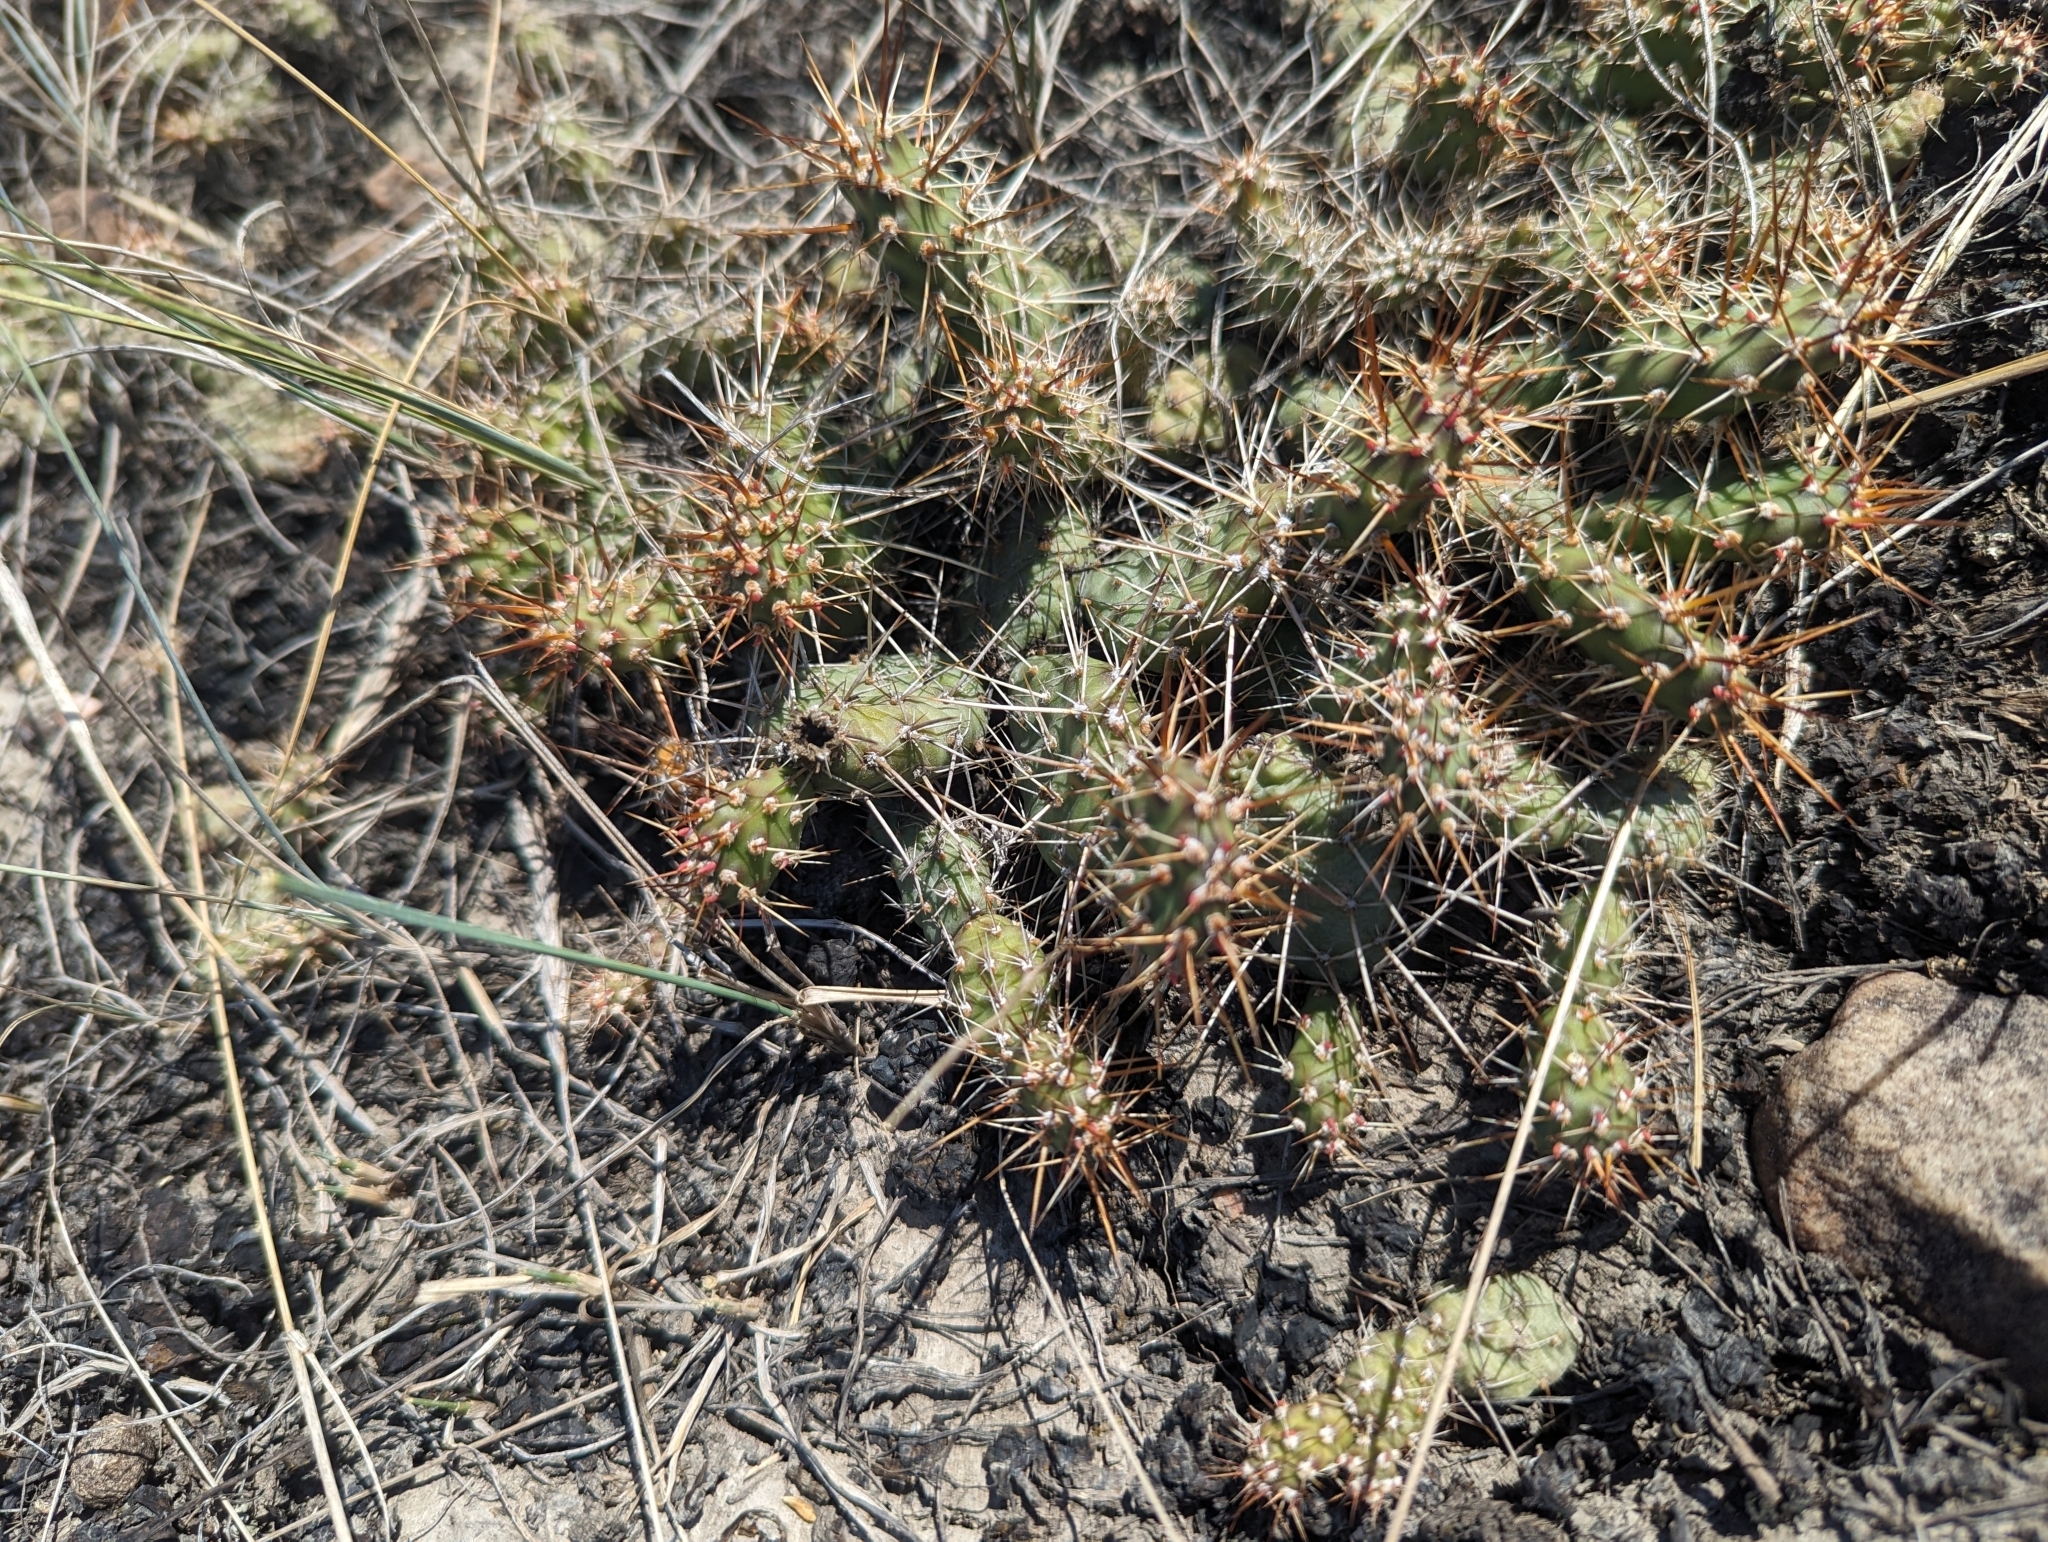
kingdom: Plantae
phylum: Tracheophyta
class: Magnoliopsida
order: Caryophyllales
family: Cactaceae
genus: Opuntia
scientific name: Opuntia fragilis
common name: Brittle cactus
